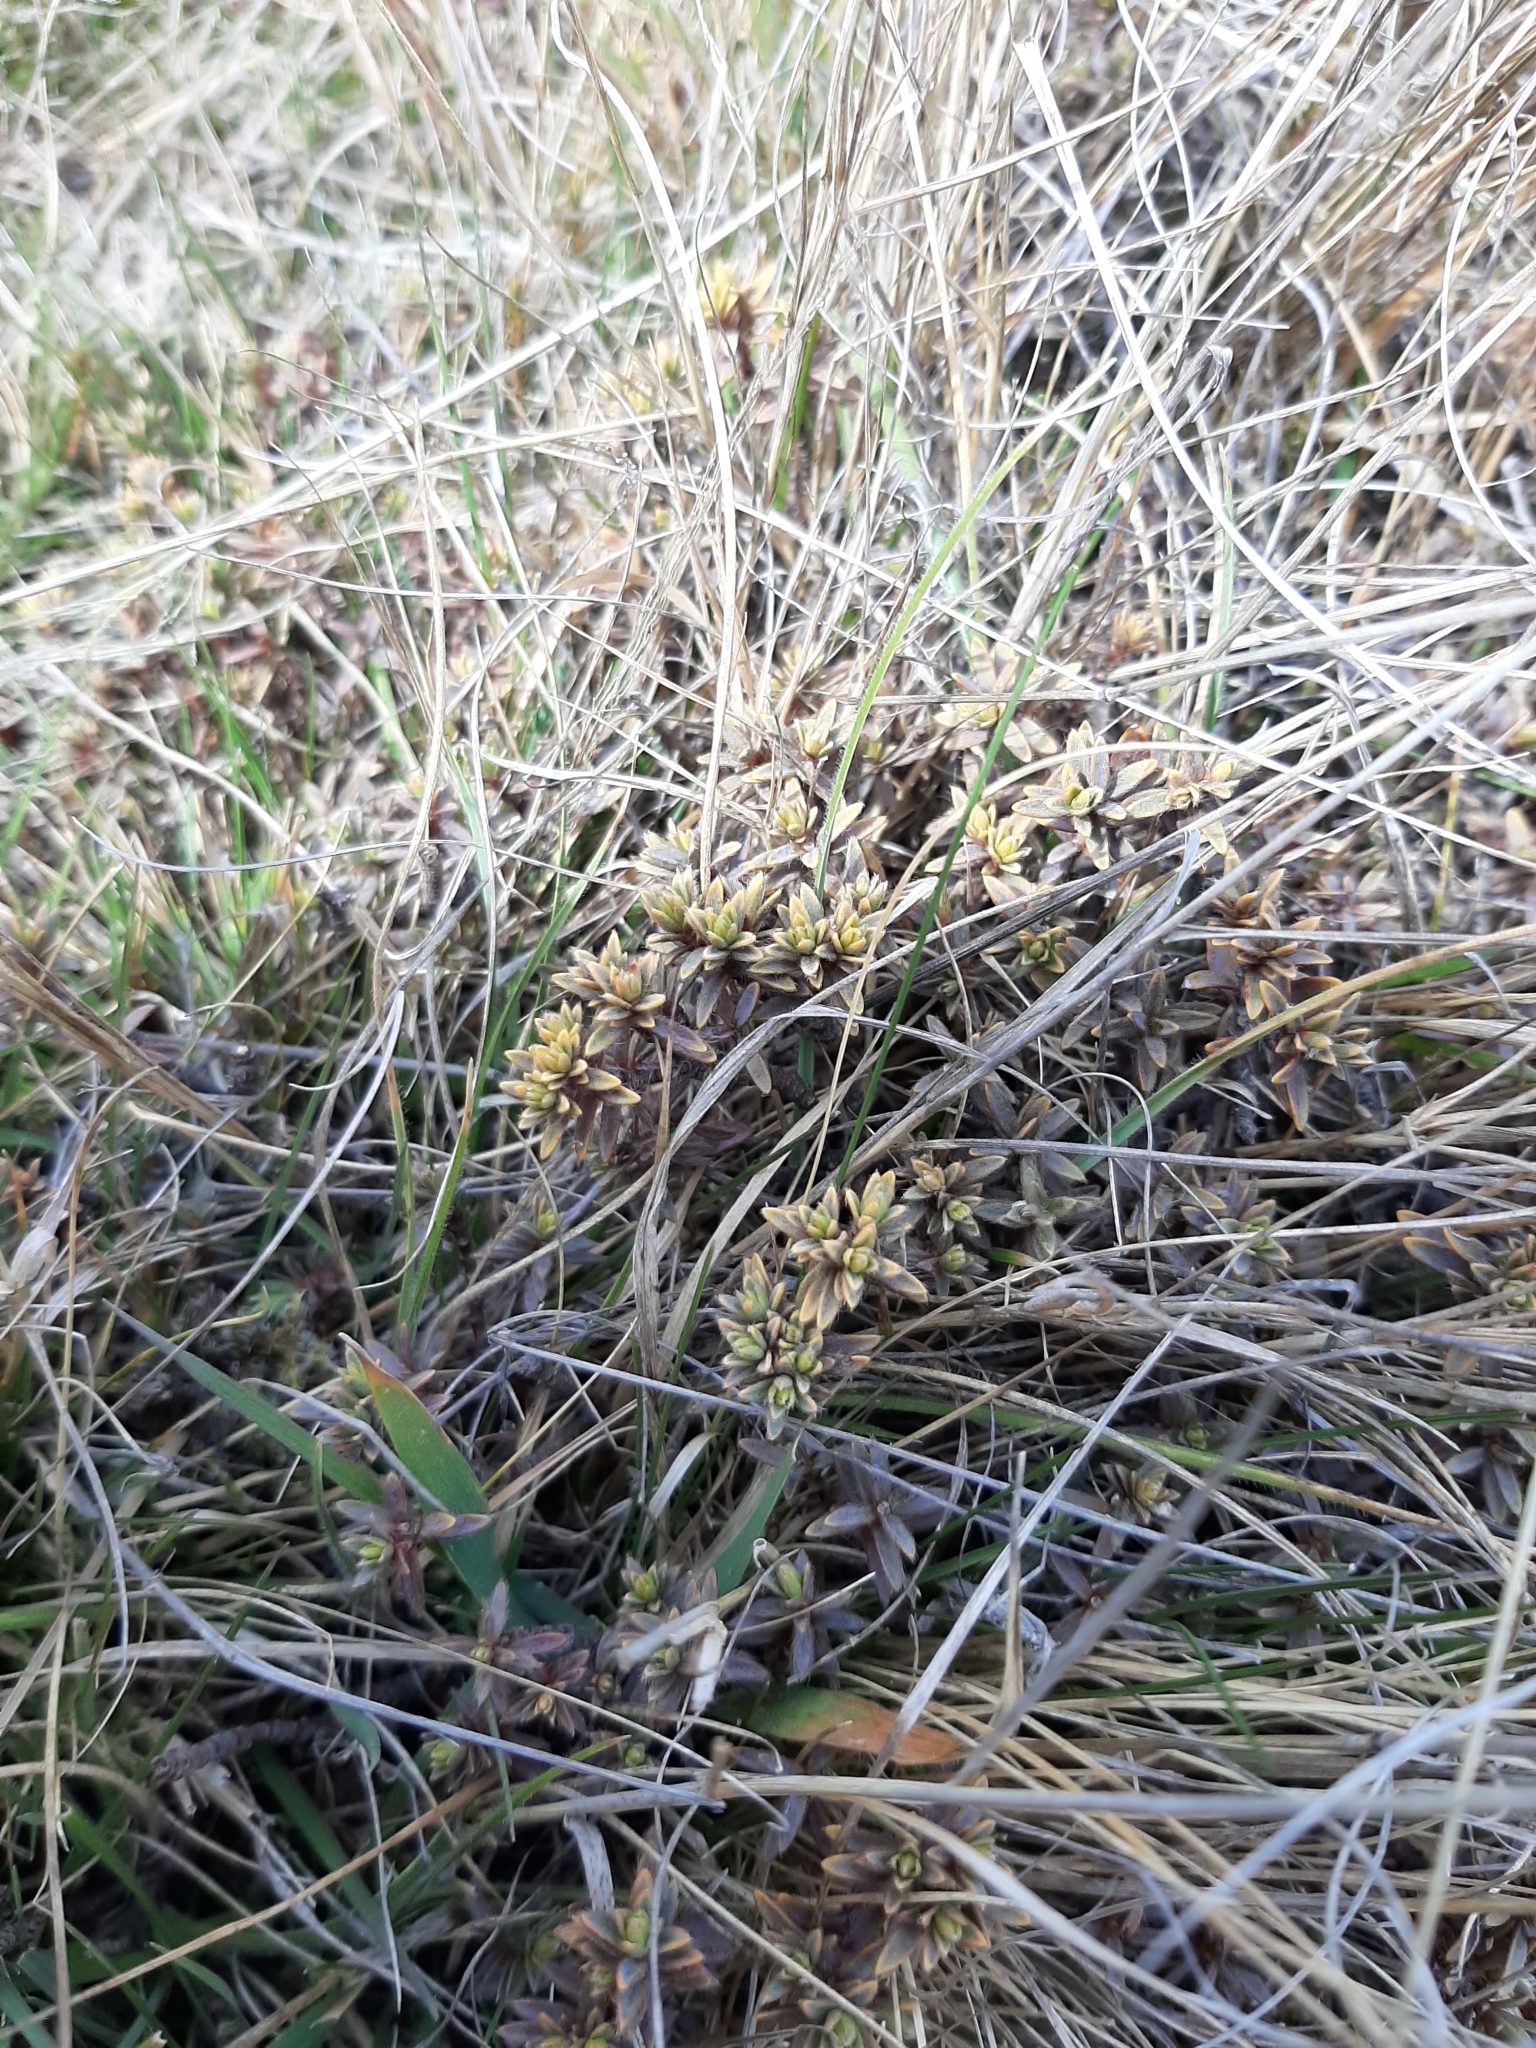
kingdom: Plantae
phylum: Tracheophyta
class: Magnoliopsida
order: Malvales
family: Thymelaeaceae
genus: Pimelea
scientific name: Pimelea oreophila
